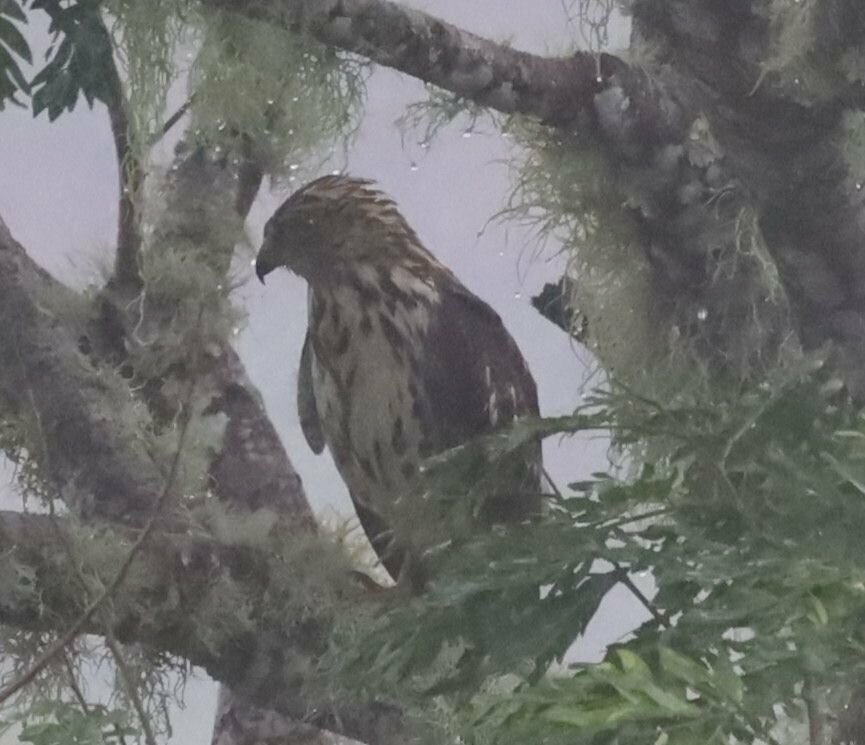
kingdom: Animalia
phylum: Chordata
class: Aves
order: Accipitriformes
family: Accipitridae
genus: Buteo
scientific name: Buteo platypterus
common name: Broad-winged hawk
